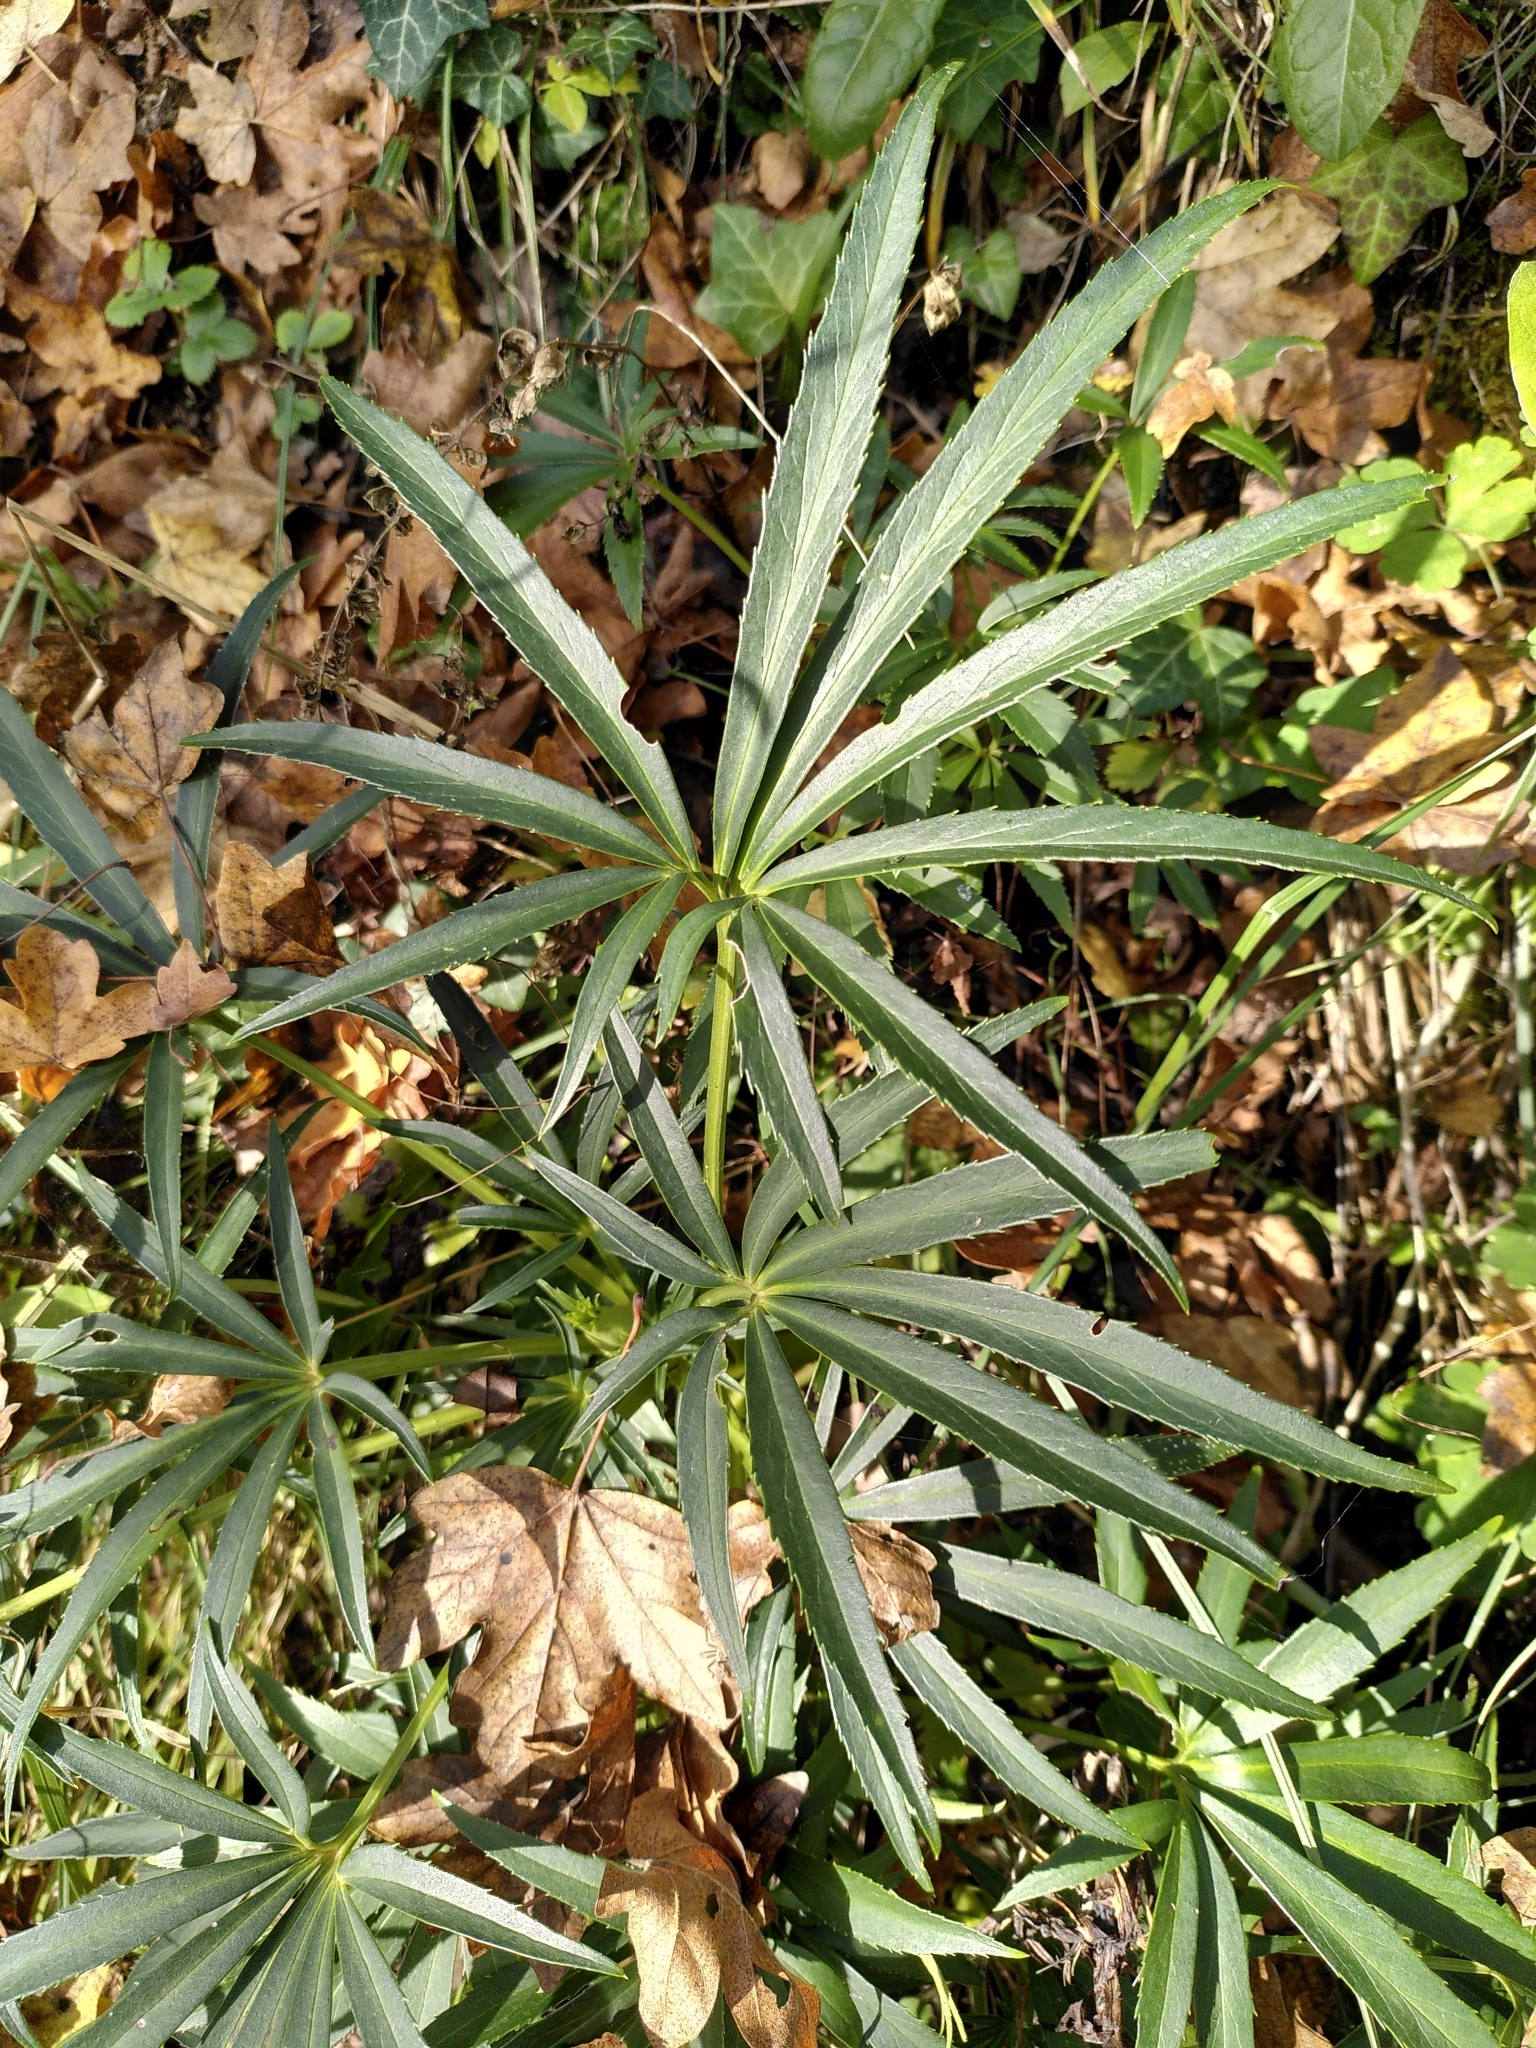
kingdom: Plantae
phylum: Tracheophyta
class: Magnoliopsida
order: Ranunculales
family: Ranunculaceae
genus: Helleborus
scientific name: Helleborus foetidus
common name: Stinking hellebore
